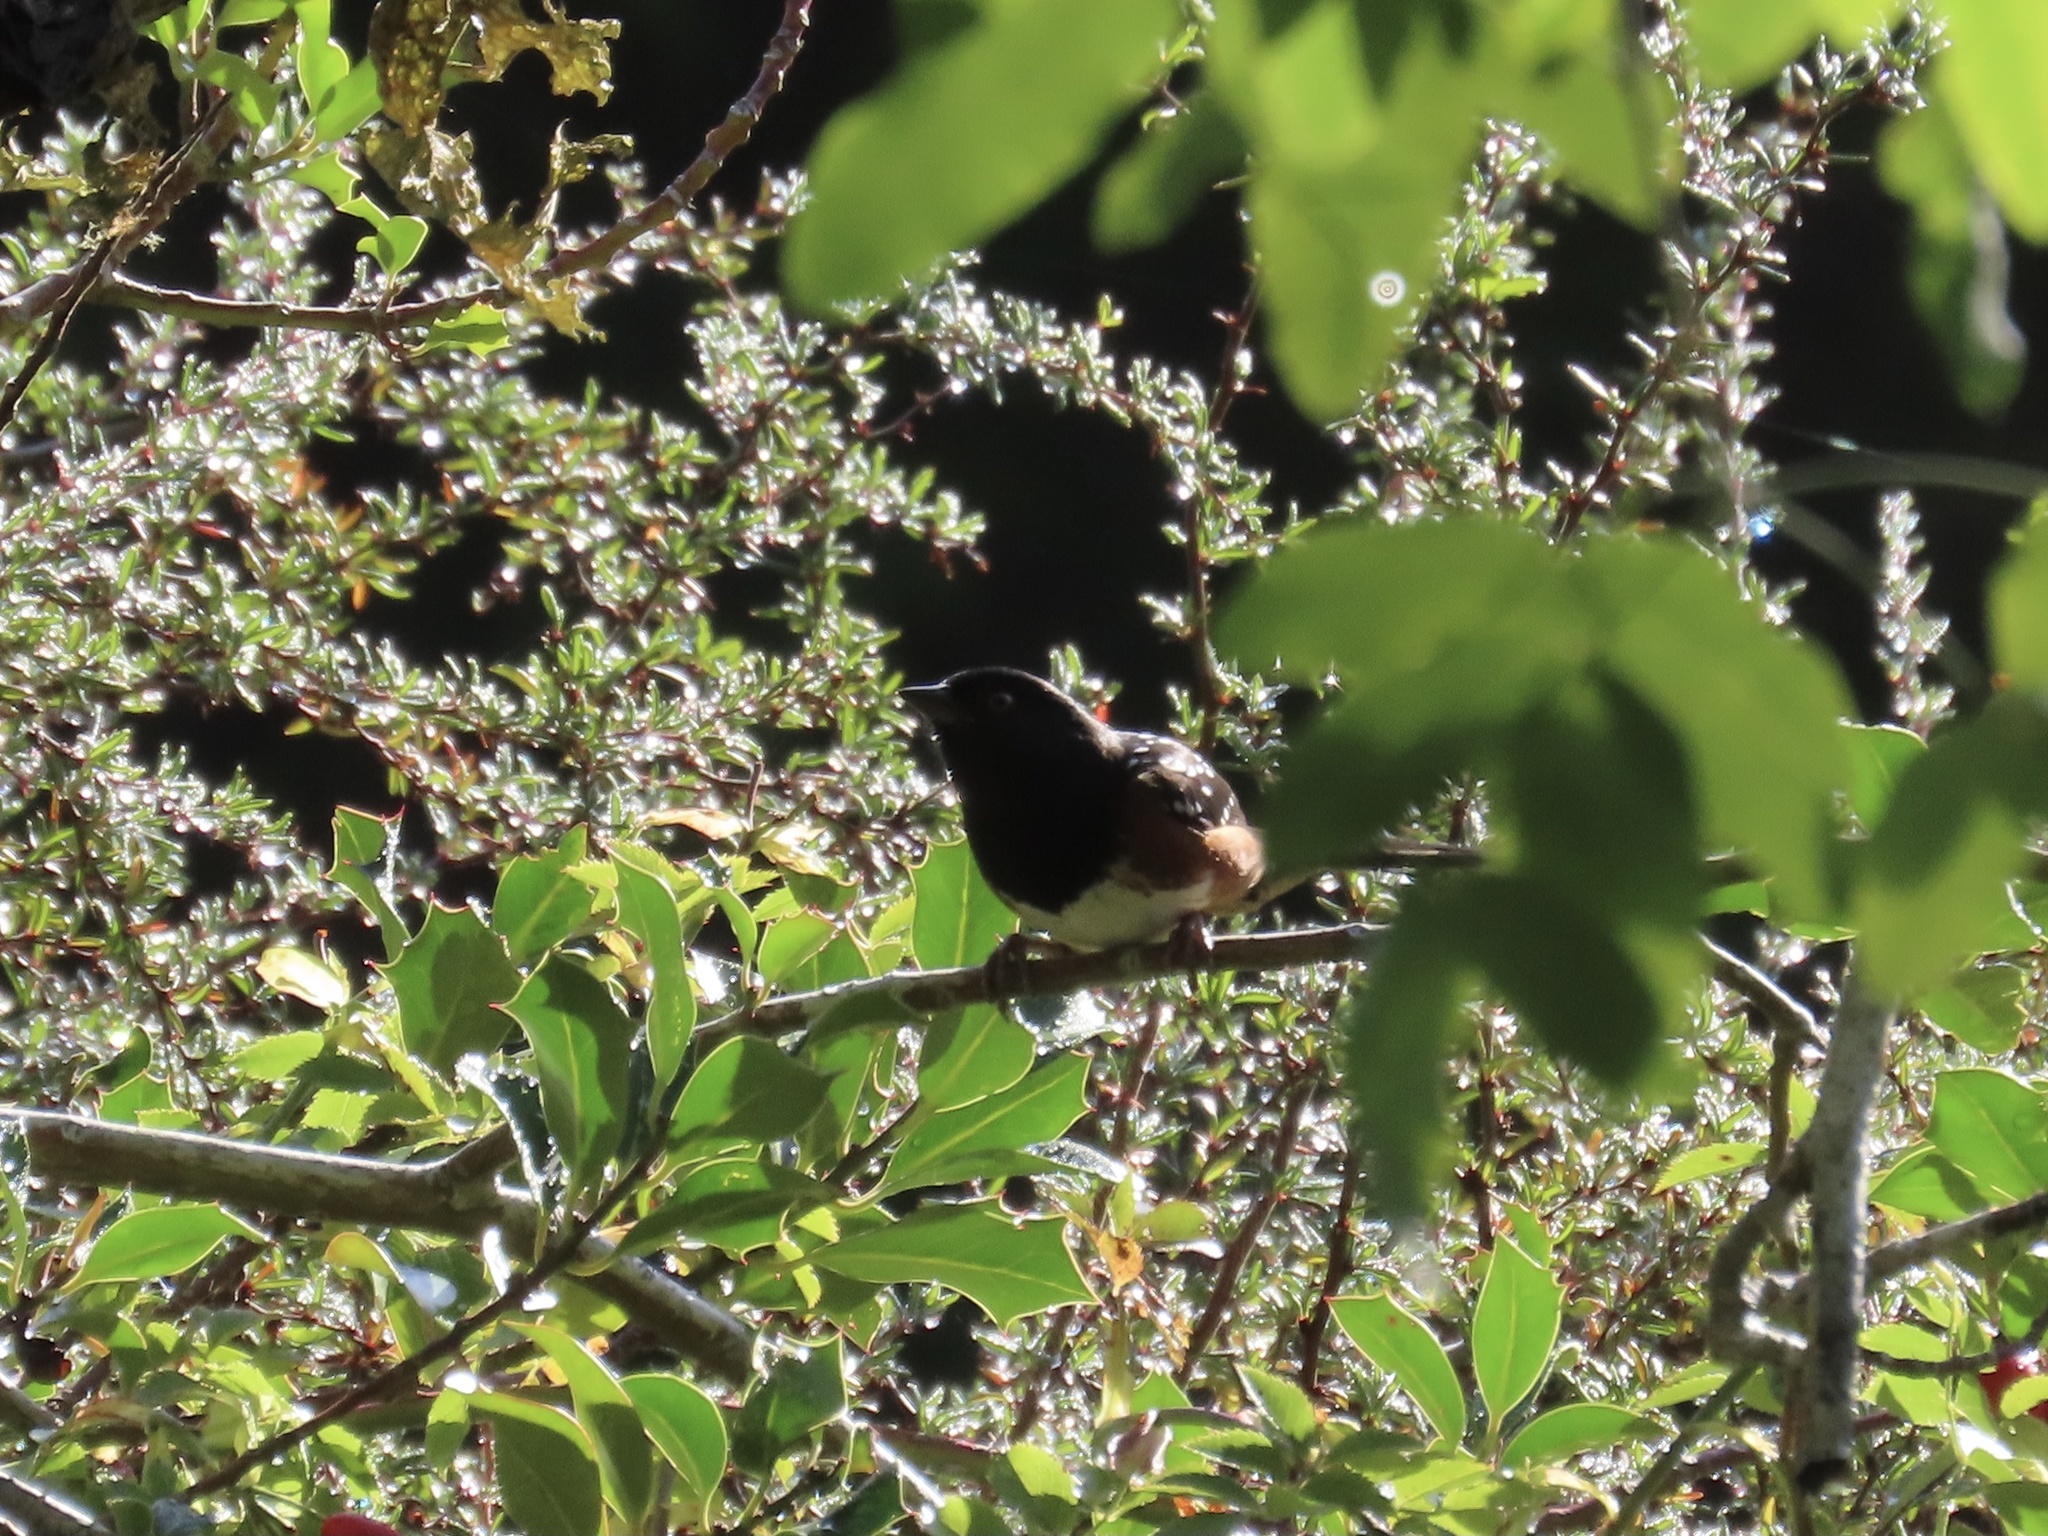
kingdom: Animalia
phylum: Chordata
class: Aves
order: Passeriformes
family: Passerellidae
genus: Pipilo
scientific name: Pipilo maculatus
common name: Spotted towhee
